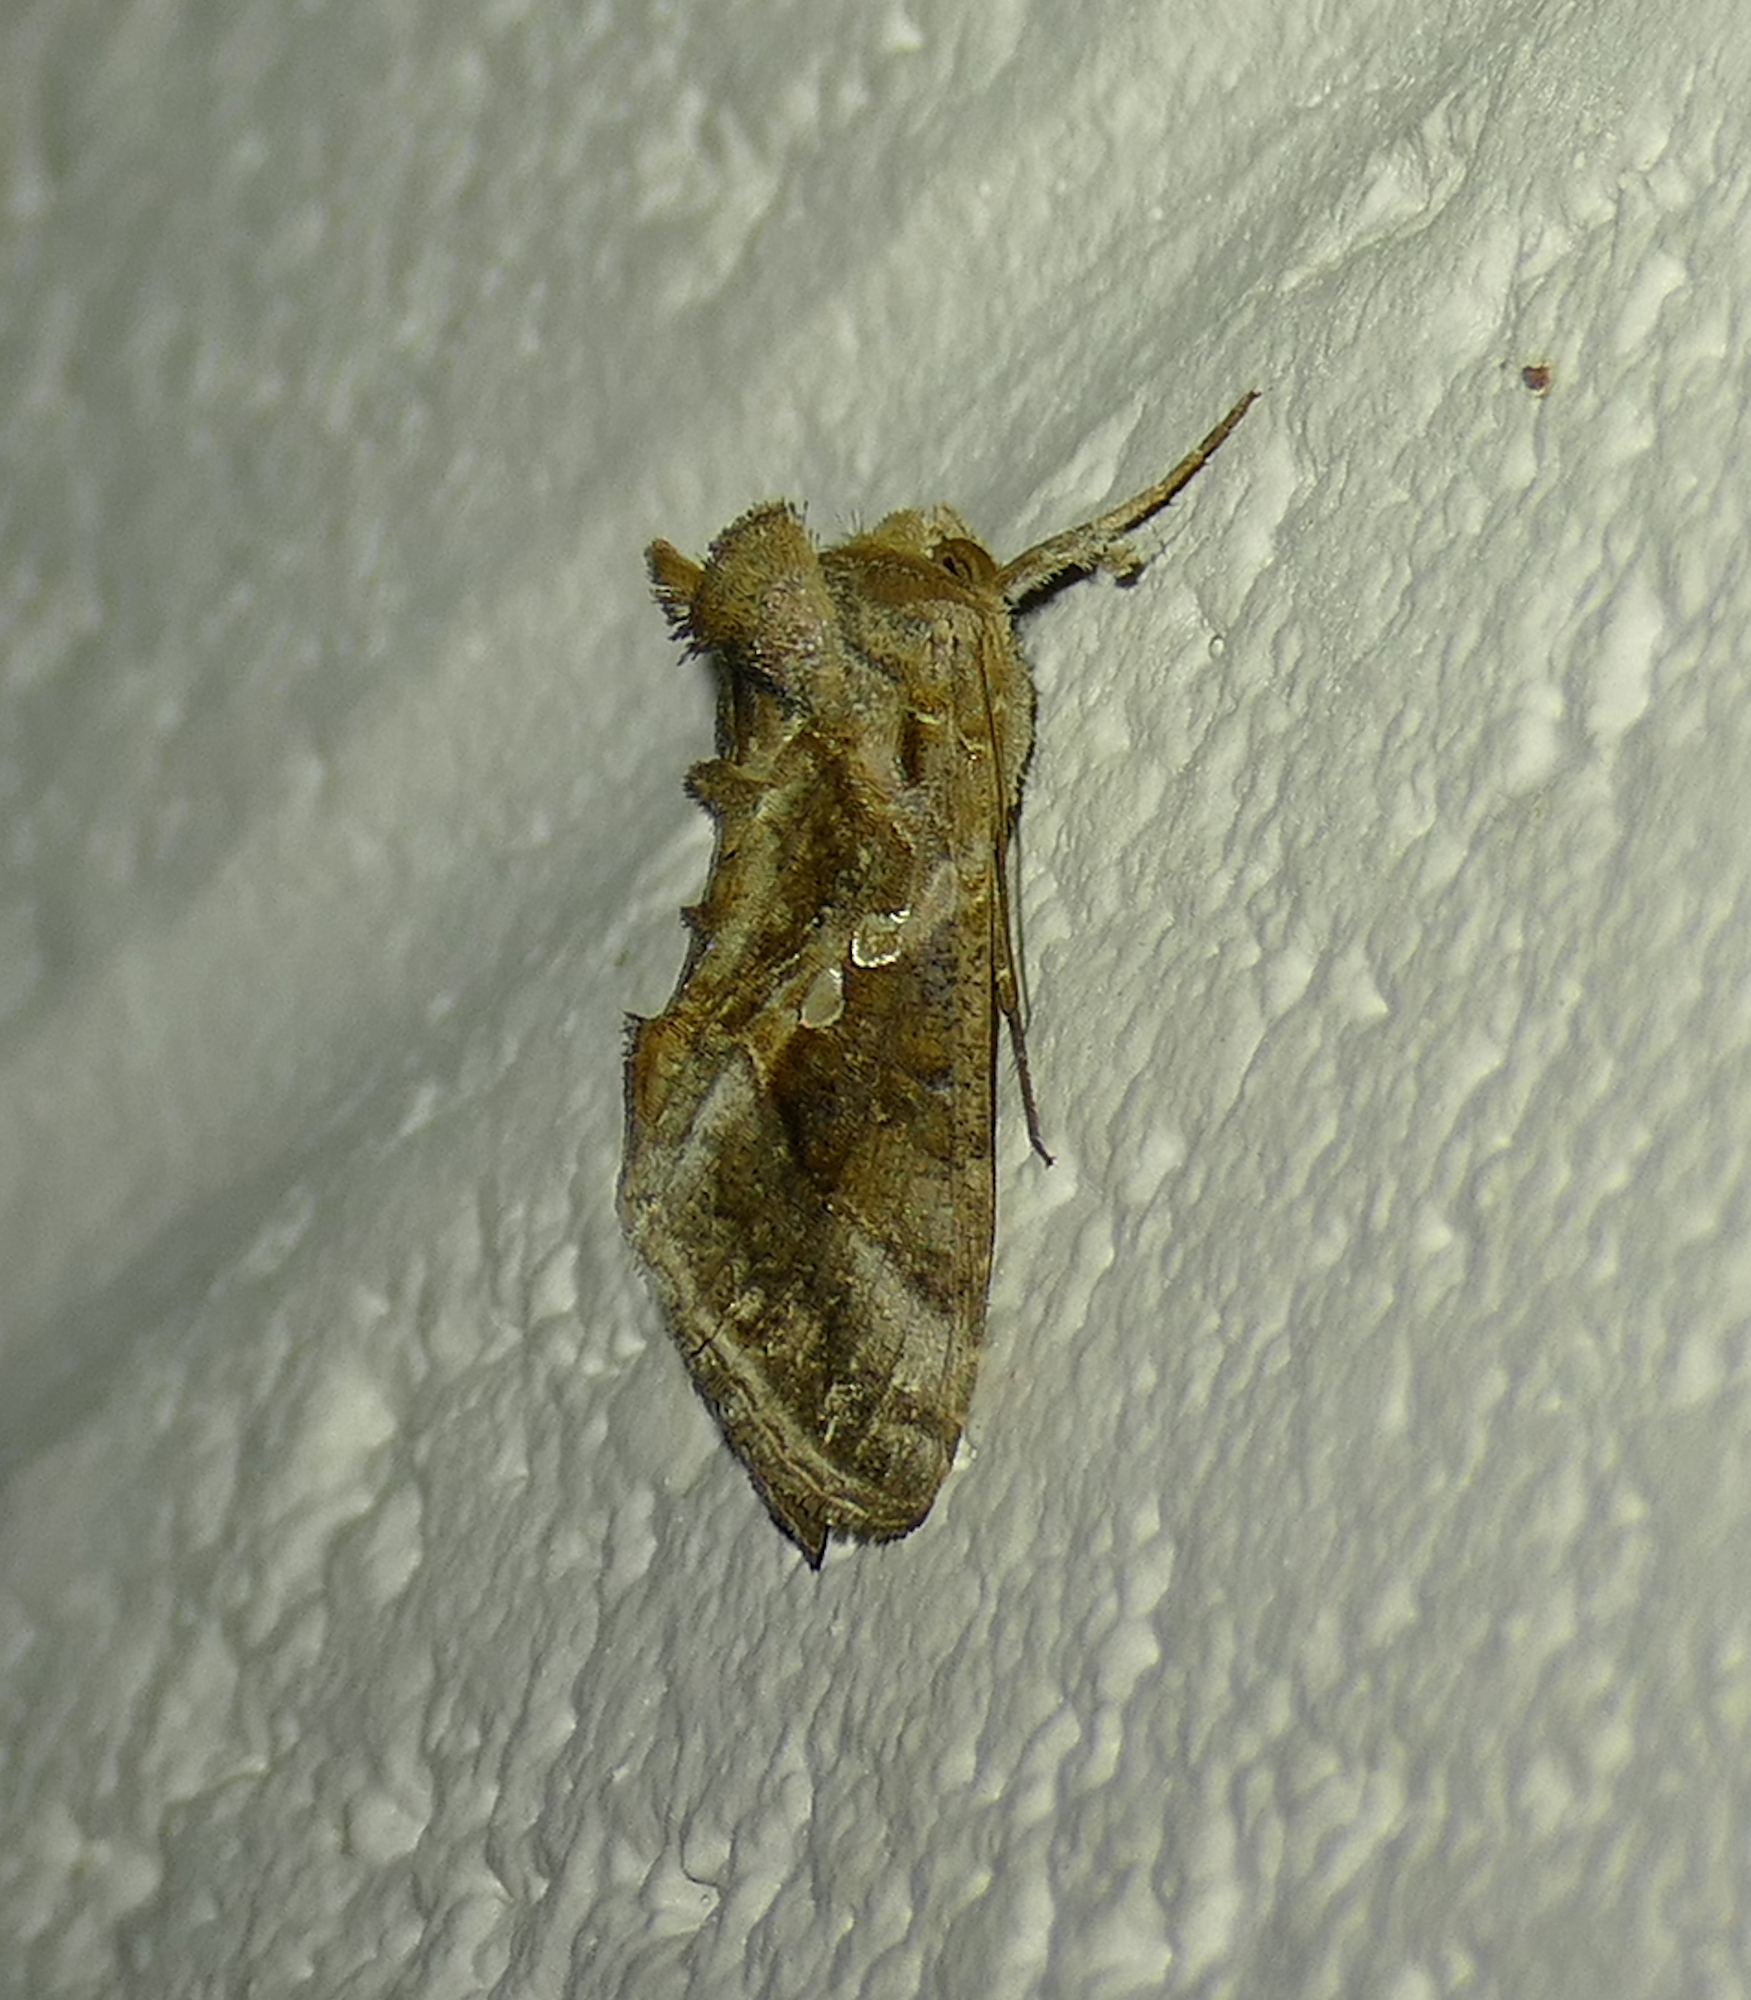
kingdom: Animalia
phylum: Arthropoda
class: Insecta
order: Lepidoptera
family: Noctuidae
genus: Chrysodeixis
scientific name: Chrysodeixis includens
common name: Cutworm moth
